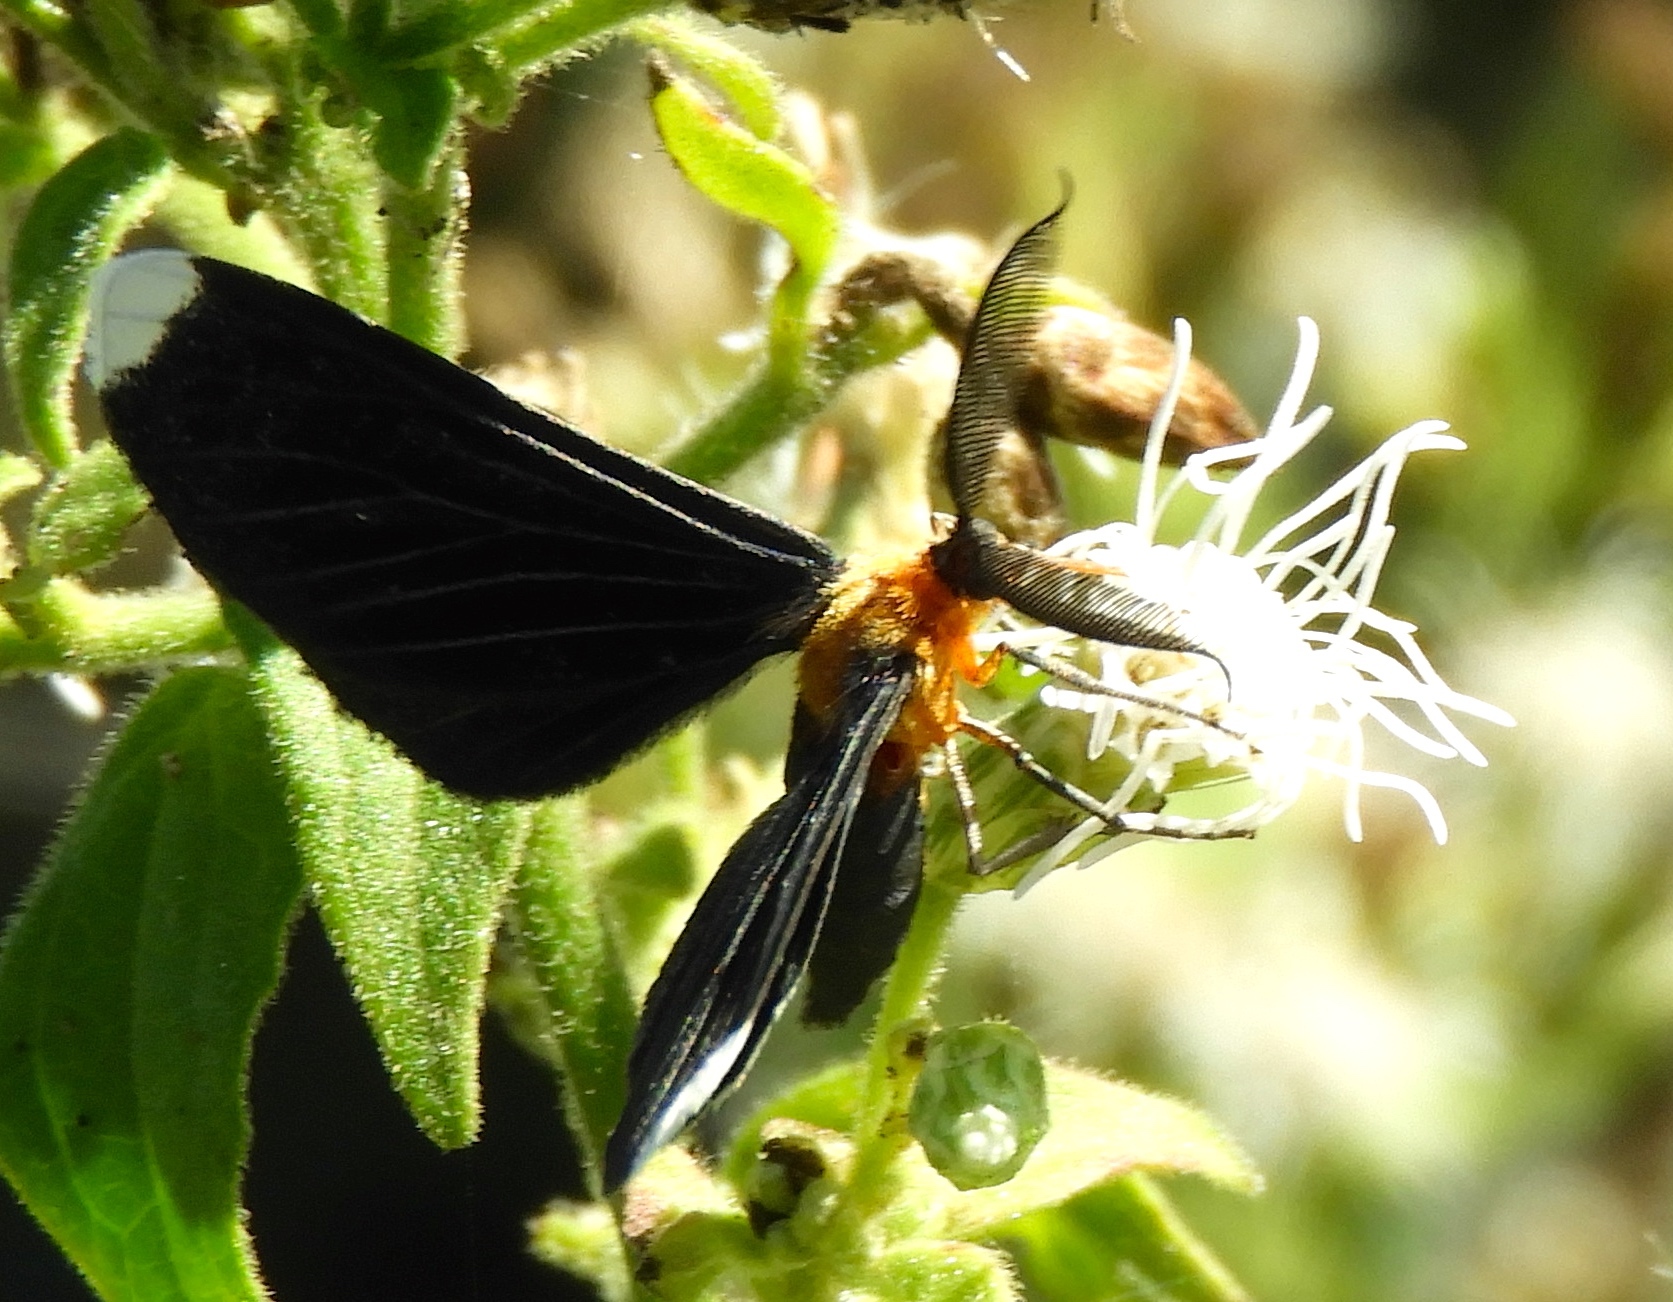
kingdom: Animalia
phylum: Arthropoda
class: Insecta
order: Lepidoptera
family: Geometridae
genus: Melanchroia
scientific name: Melanchroia chephise
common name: White-tipped black
